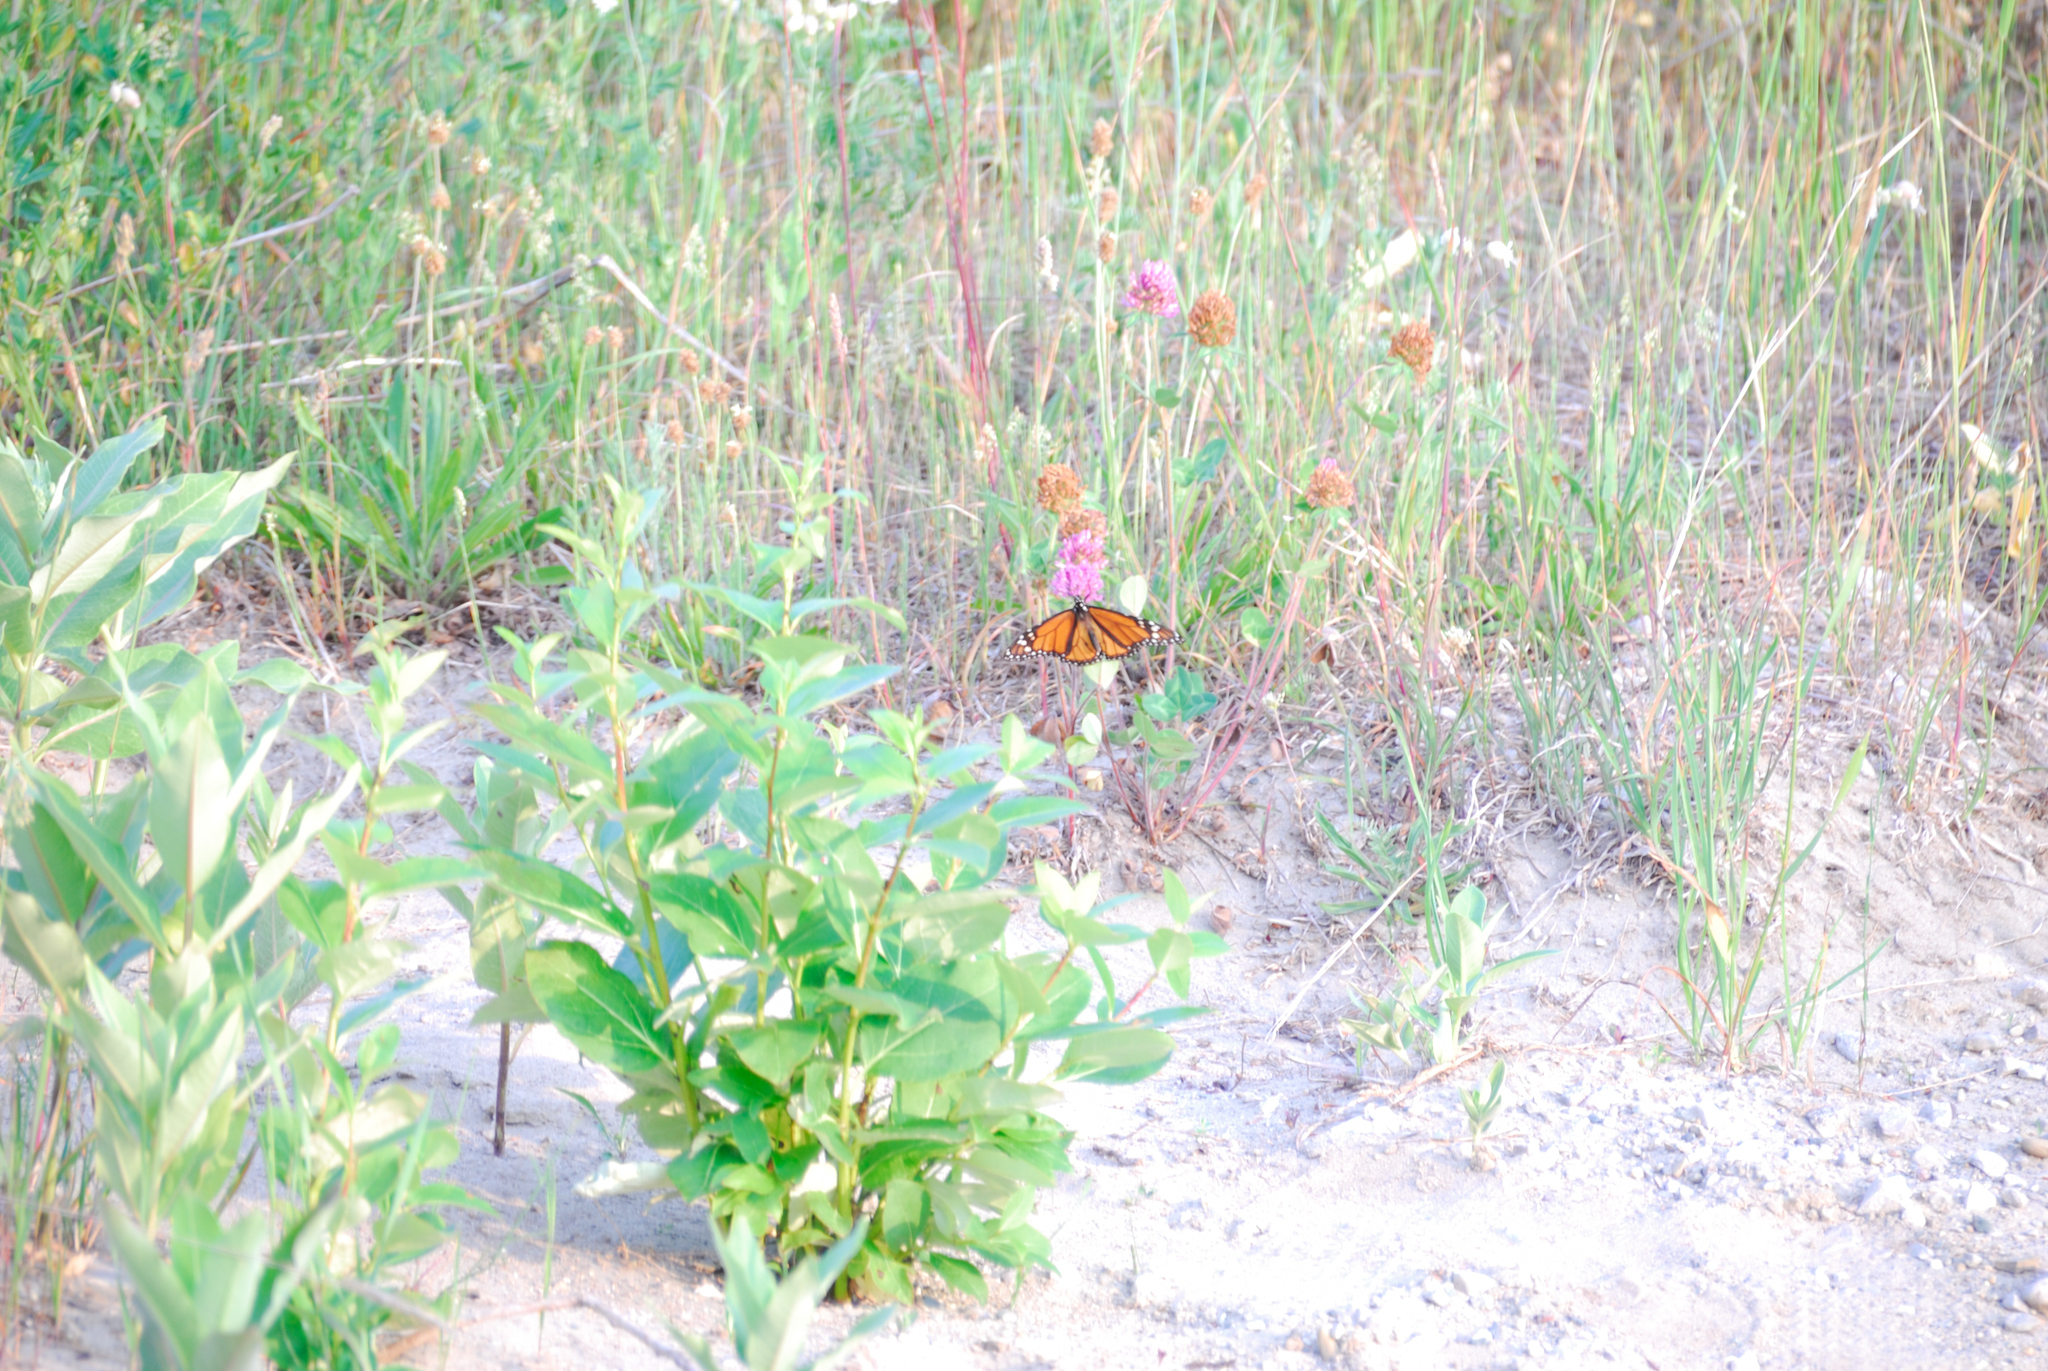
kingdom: Animalia
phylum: Arthropoda
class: Insecta
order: Lepidoptera
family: Nymphalidae
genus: Danaus
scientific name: Danaus plexippus
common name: Monarch
